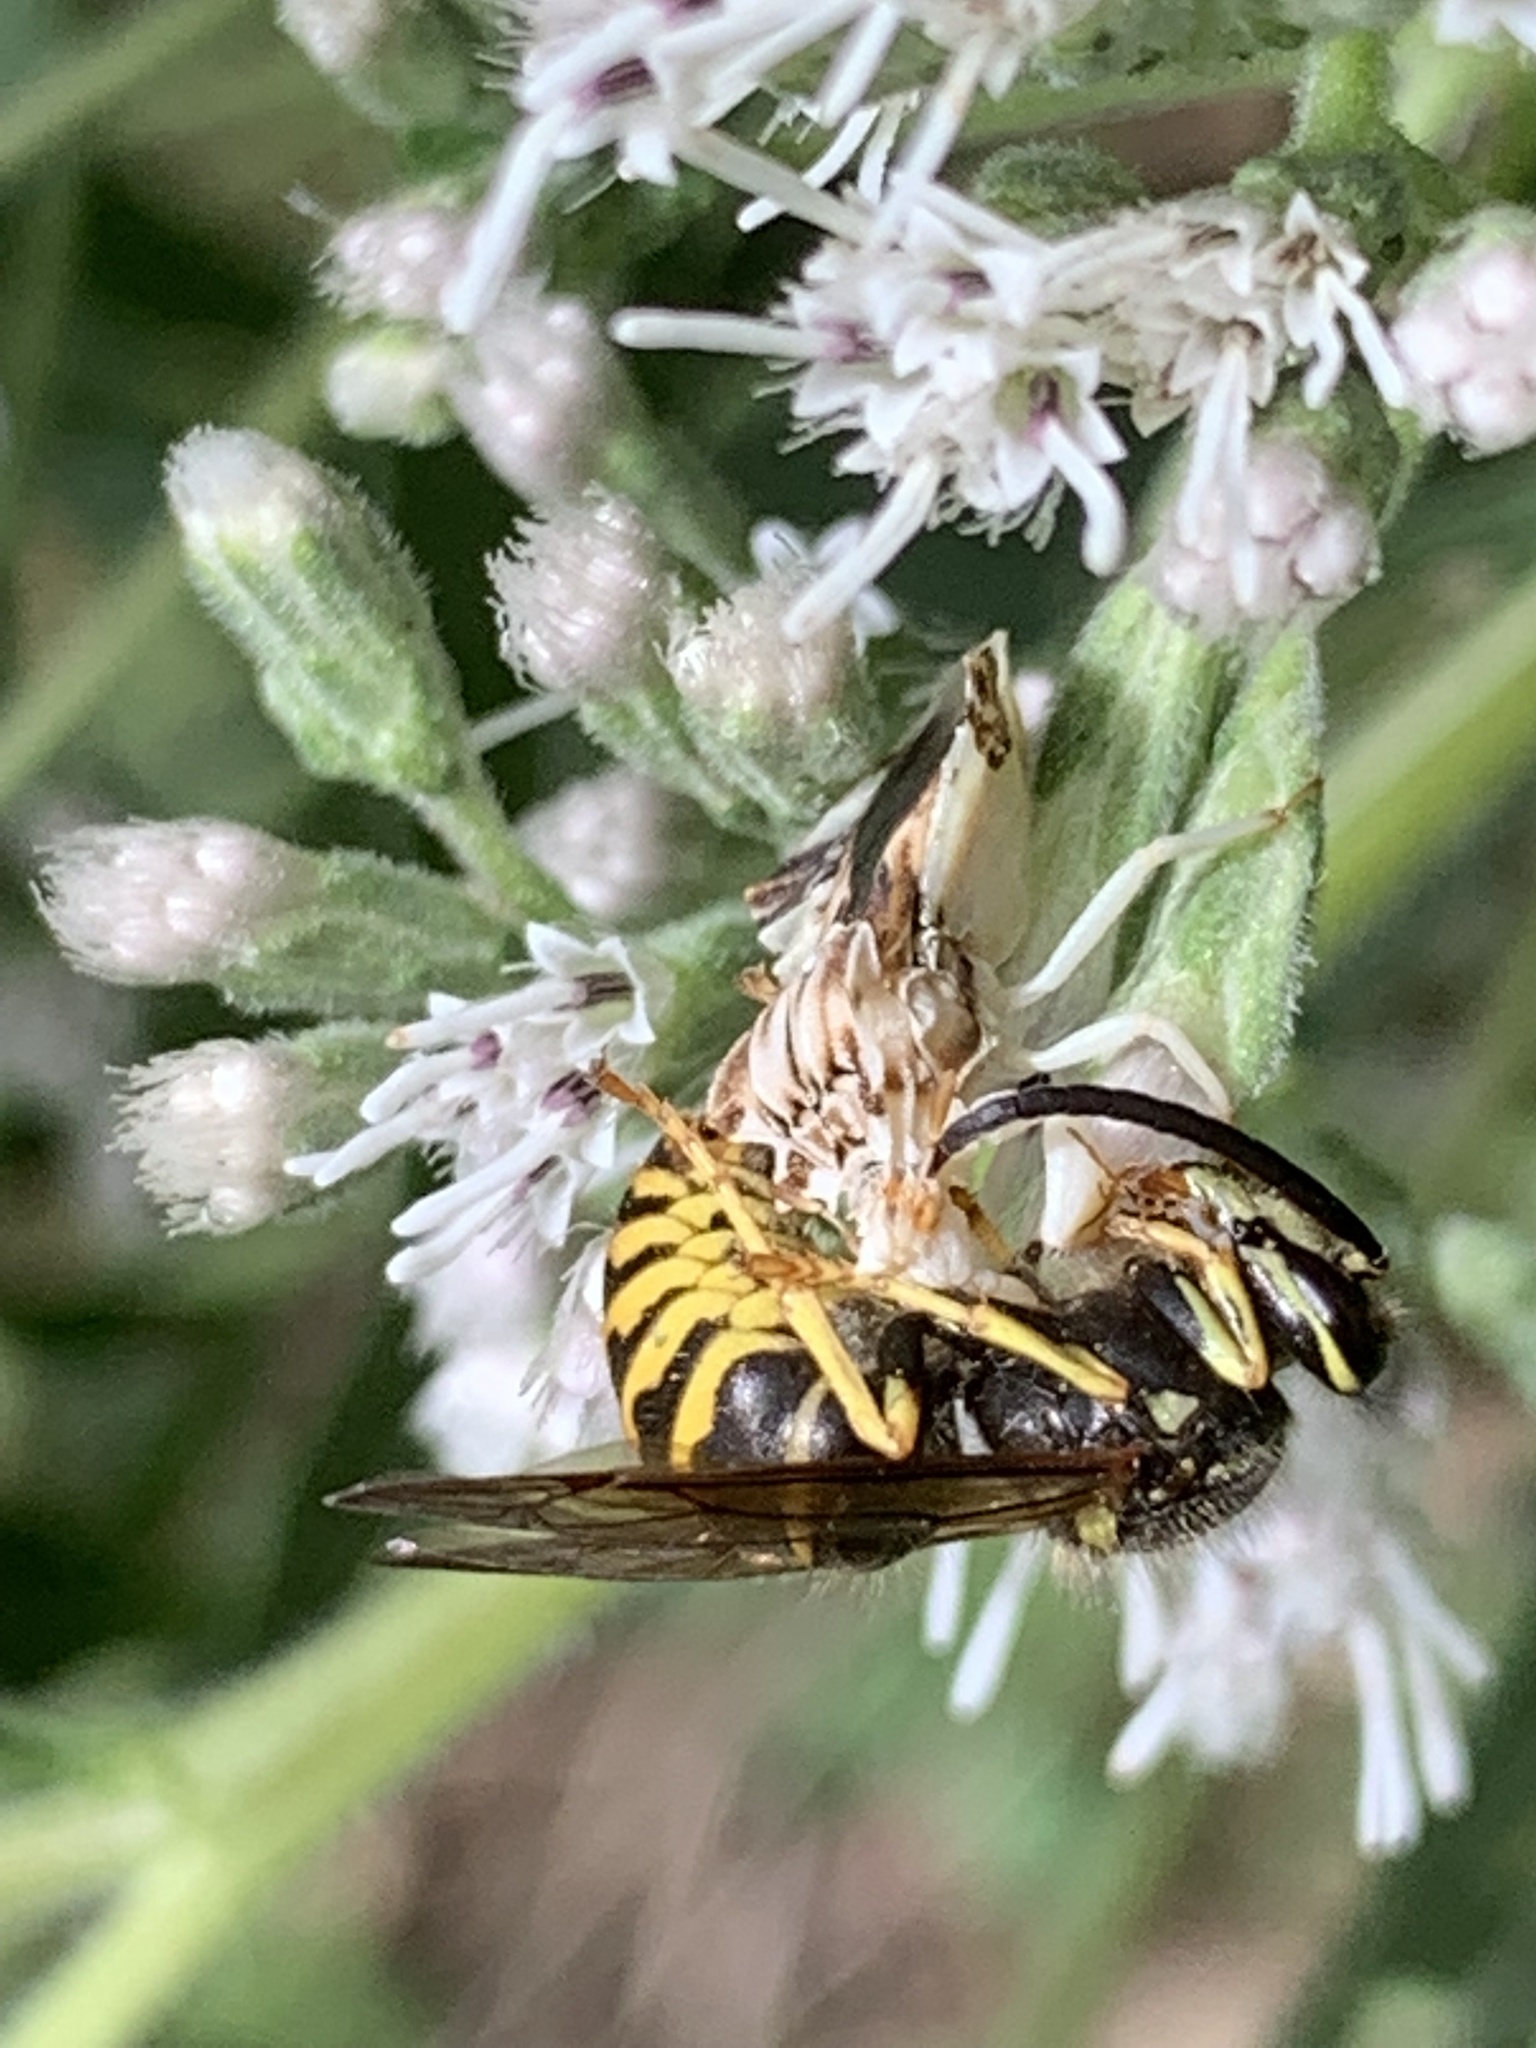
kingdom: Animalia
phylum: Arthropoda
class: Insecta
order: Hymenoptera
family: Vespidae
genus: Dolichovespula
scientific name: Dolichovespula arenaria
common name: Aerial yellowjacket
